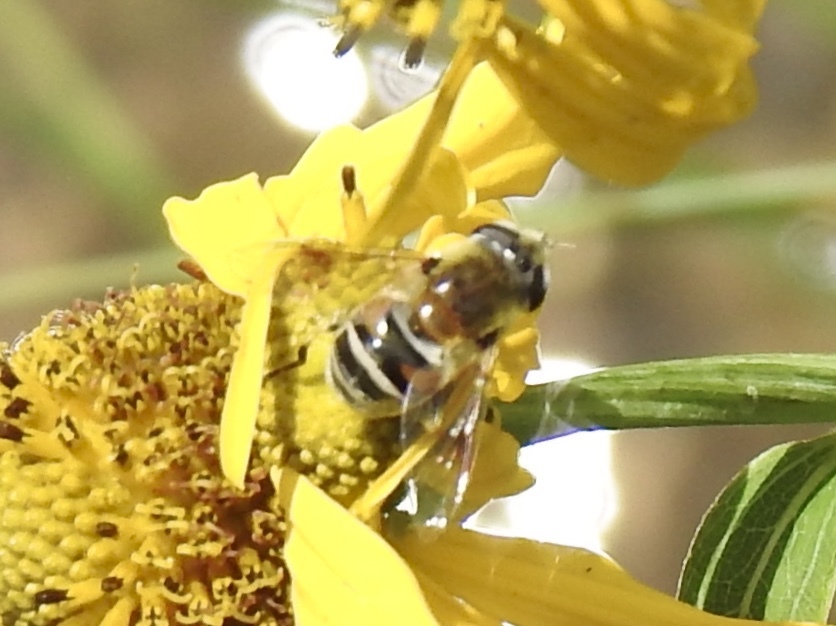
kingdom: Animalia
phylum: Arthropoda
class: Insecta
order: Diptera
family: Syrphidae
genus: Eristalis
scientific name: Eristalis stipator
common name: Yellow-shouldered drone fly
